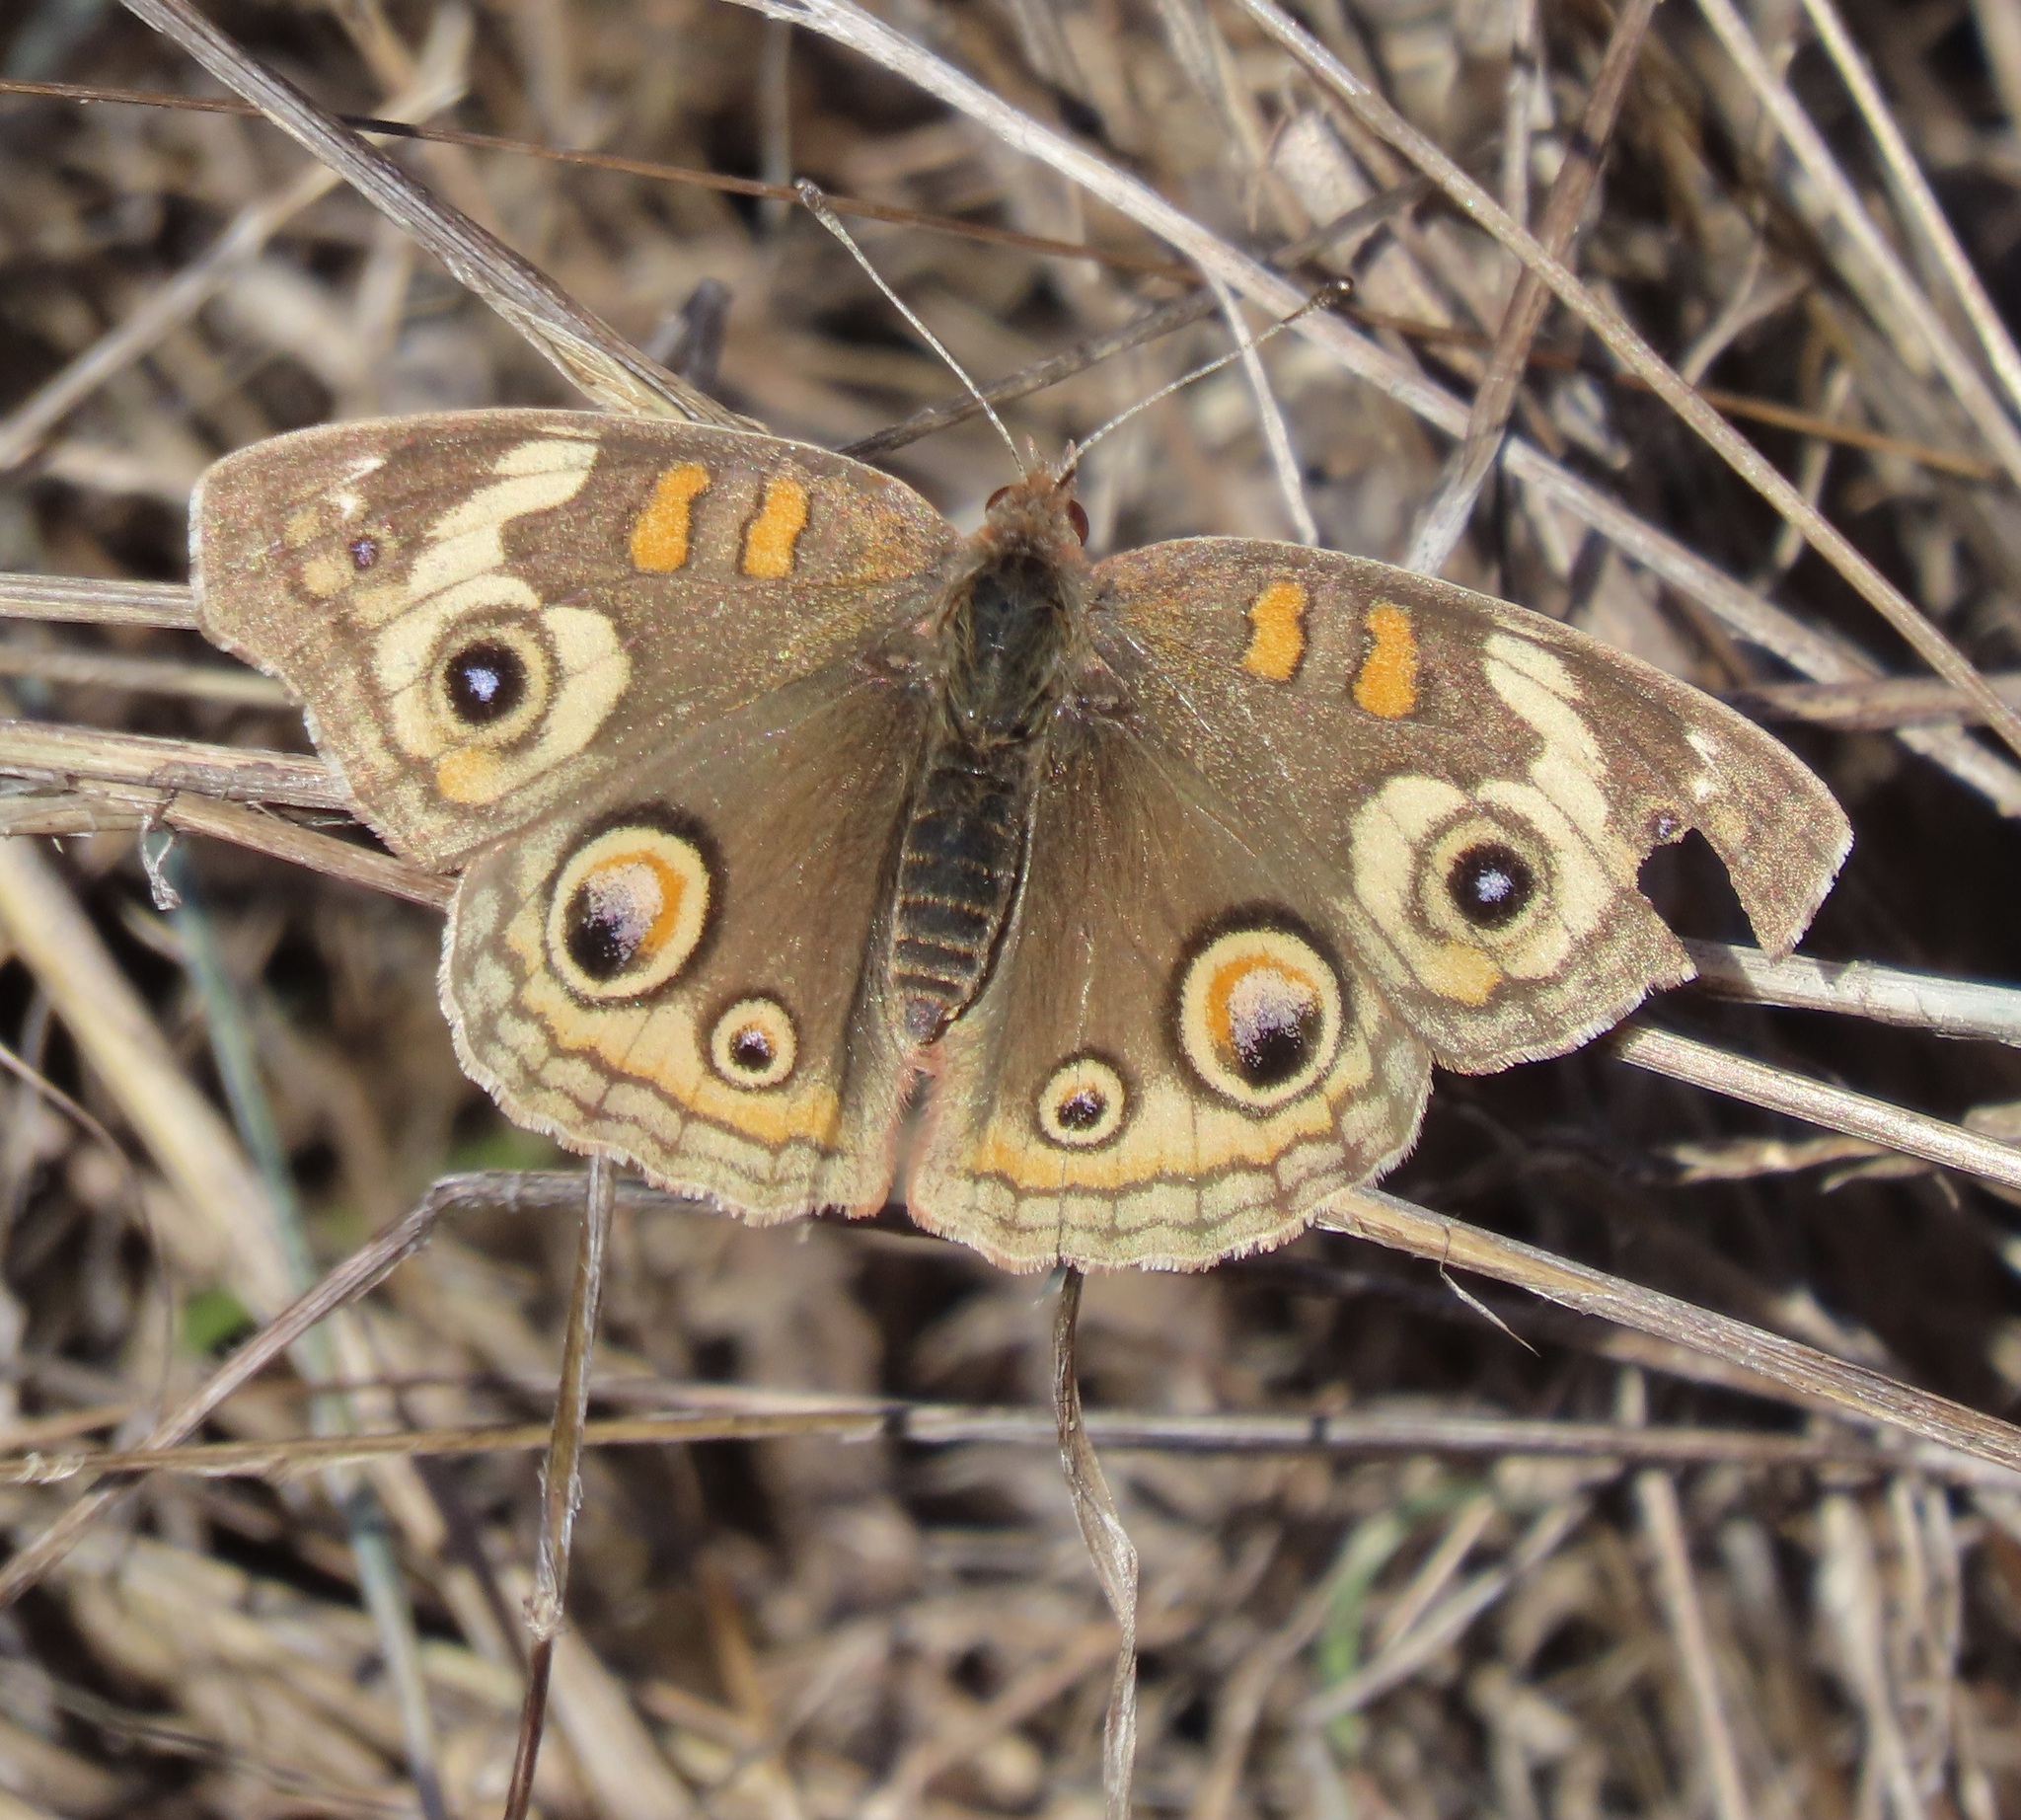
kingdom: Animalia
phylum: Arthropoda
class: Insecta
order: Lepidoptera
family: Nymphalidae
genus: Junonia
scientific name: Junonia grisea
